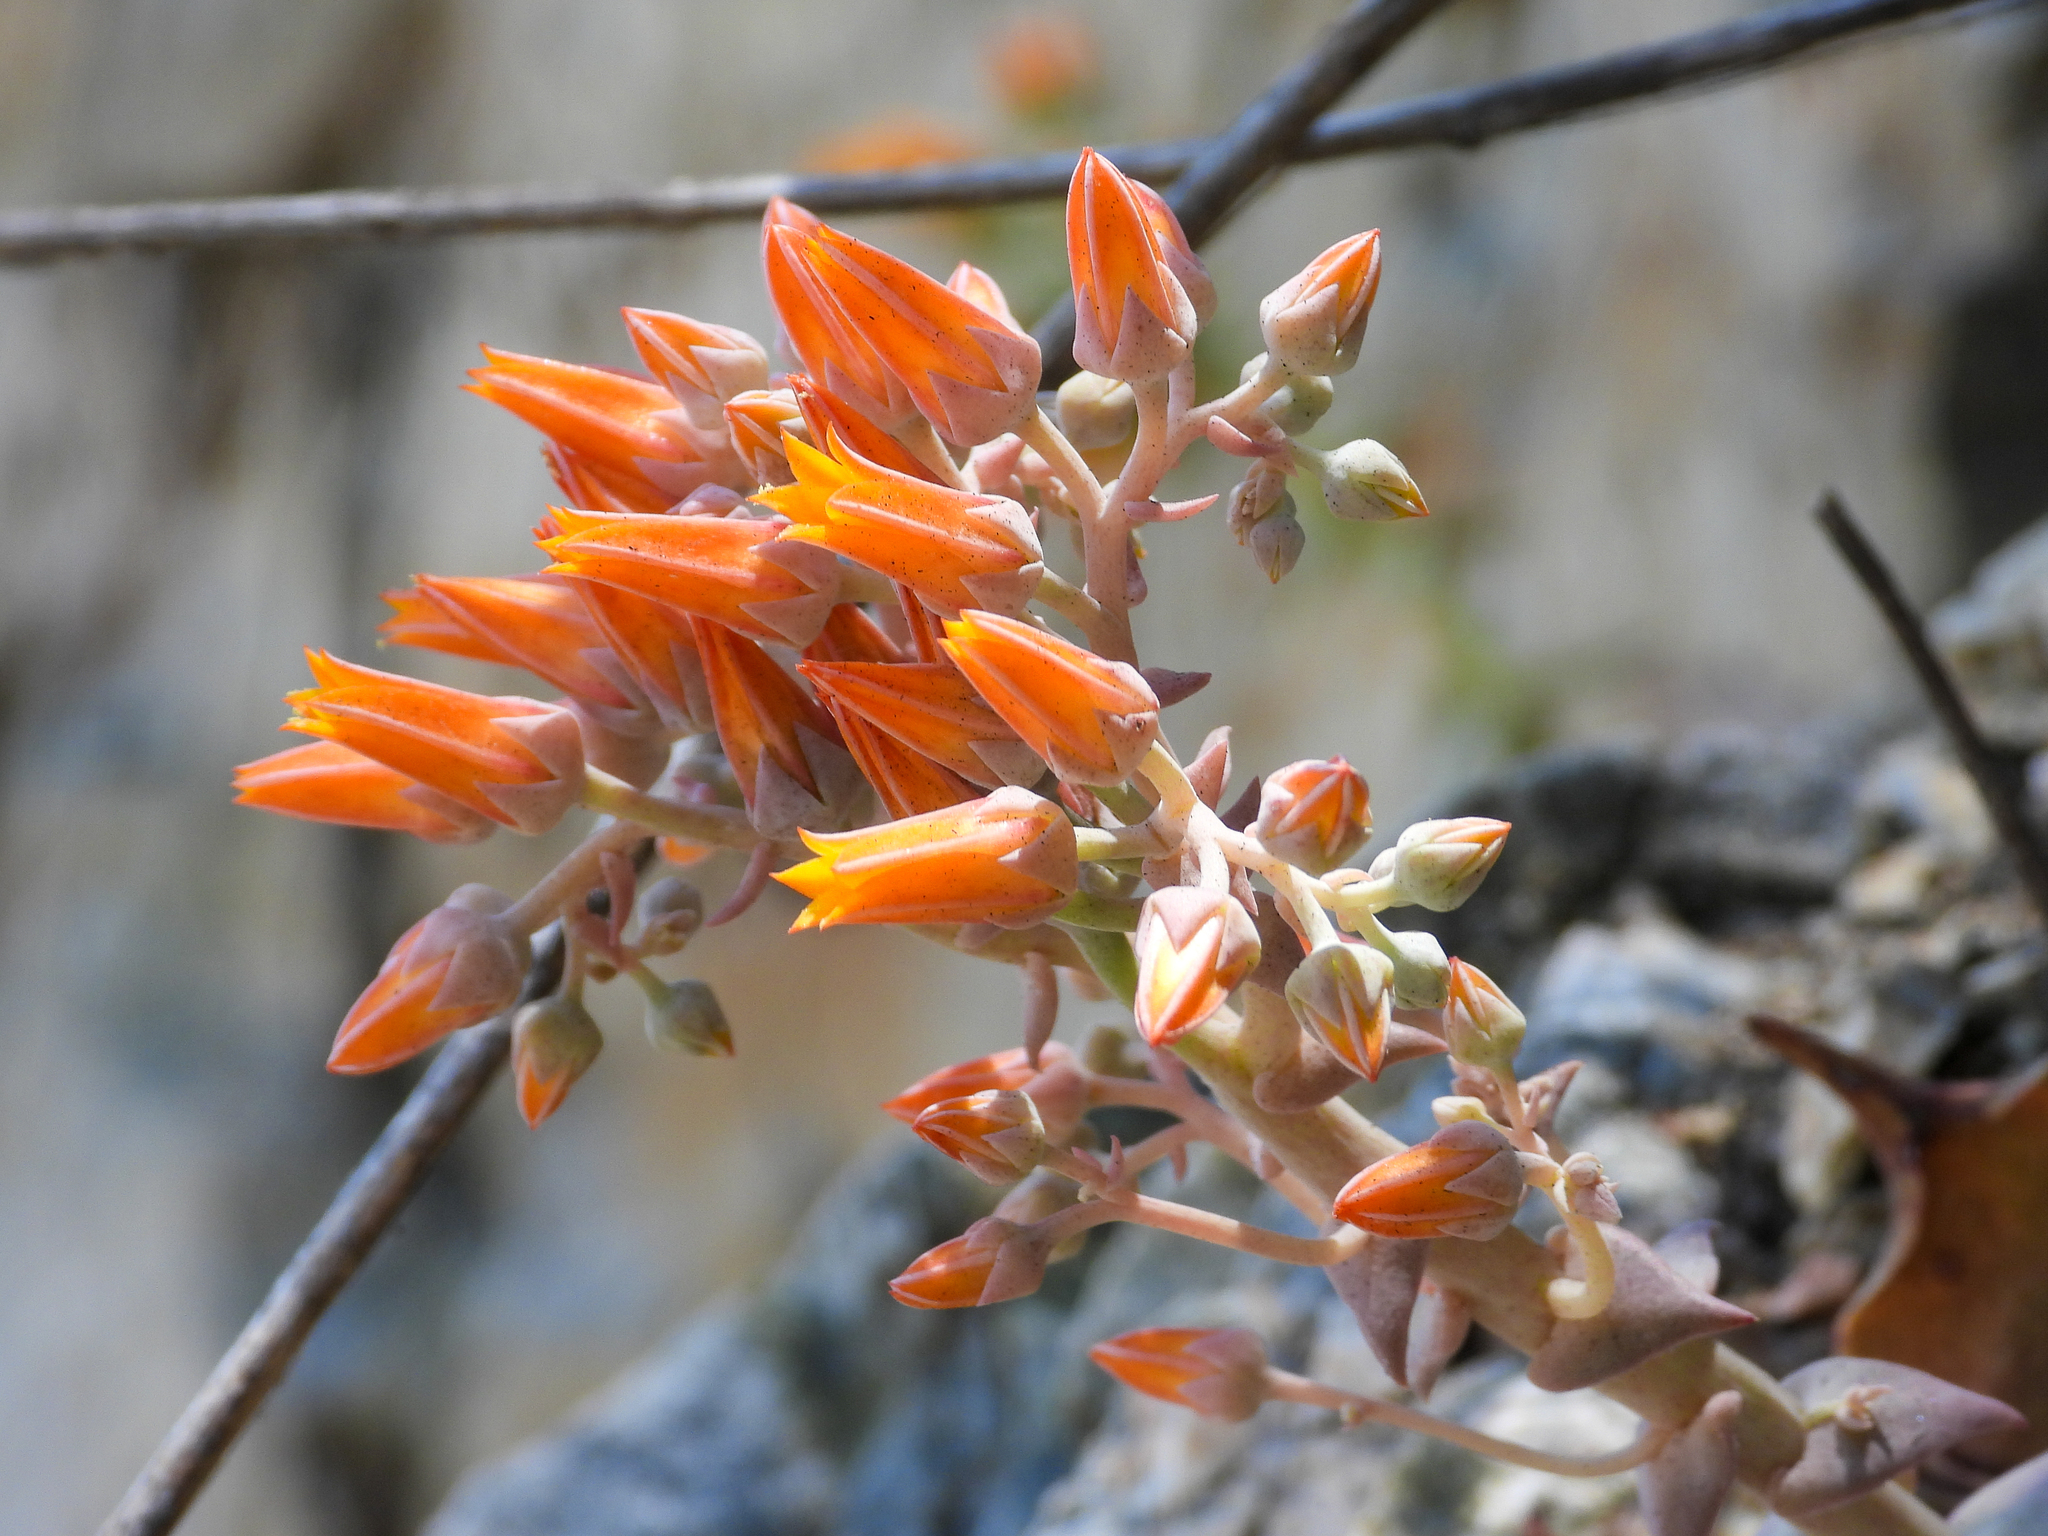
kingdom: Plantae
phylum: Tracheophyta
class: Magnoliopsida
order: Saxifragales
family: Crassulaceae
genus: Dudleya
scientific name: Dudleya cymosa
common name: Canyon dudleya
